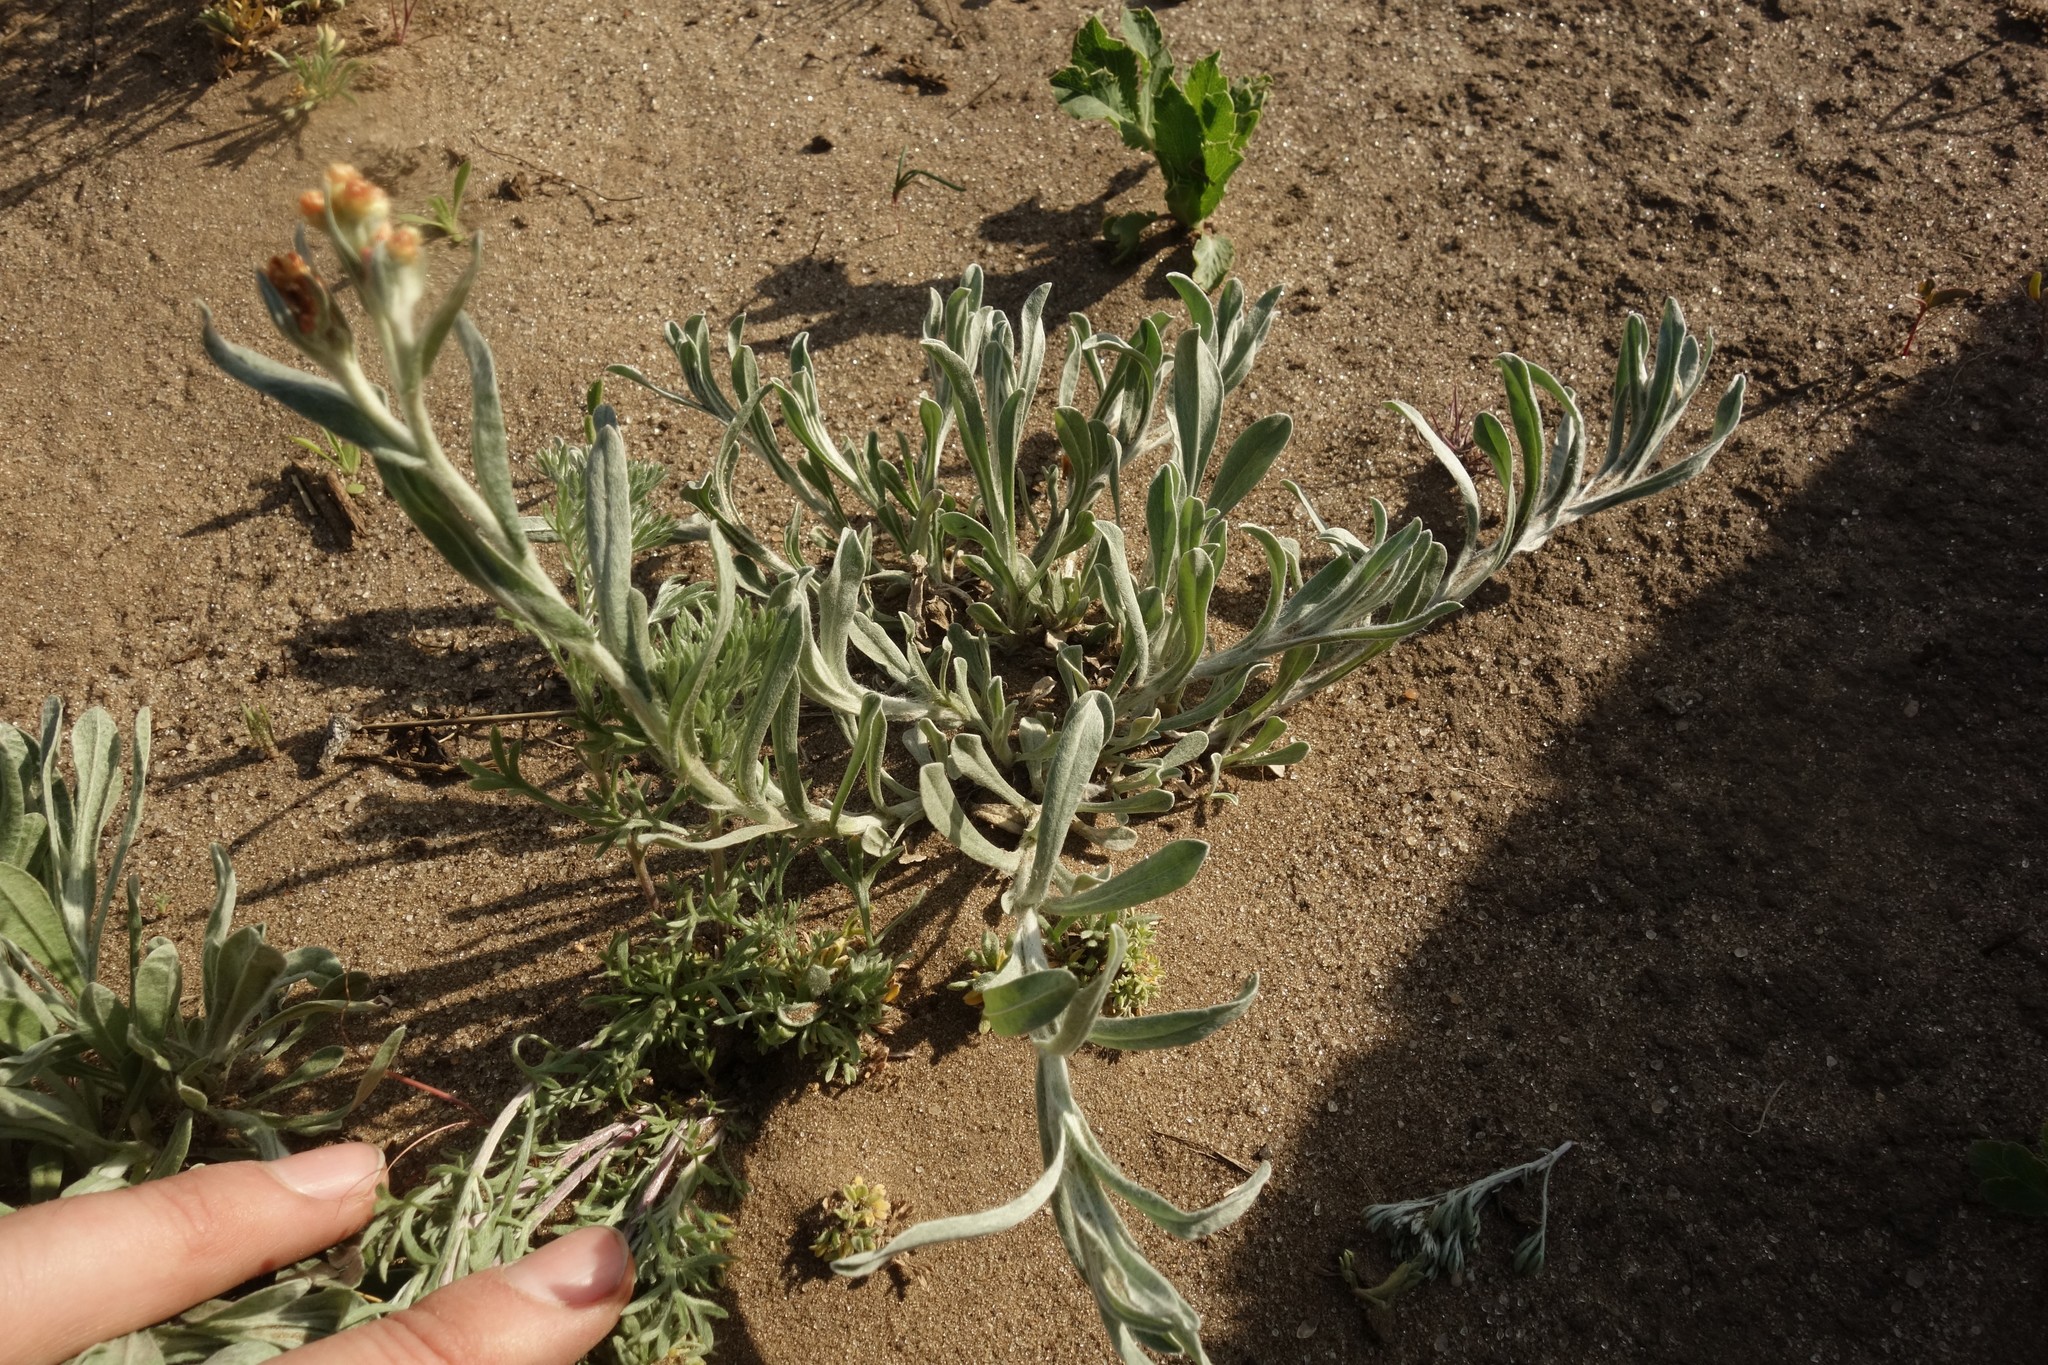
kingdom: Plantae
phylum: Tracheophyta
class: Magnoliopsida
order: Asterales
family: Asteraceae
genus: Helichrysum
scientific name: Helichrysum arenarium
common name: Strawflower
